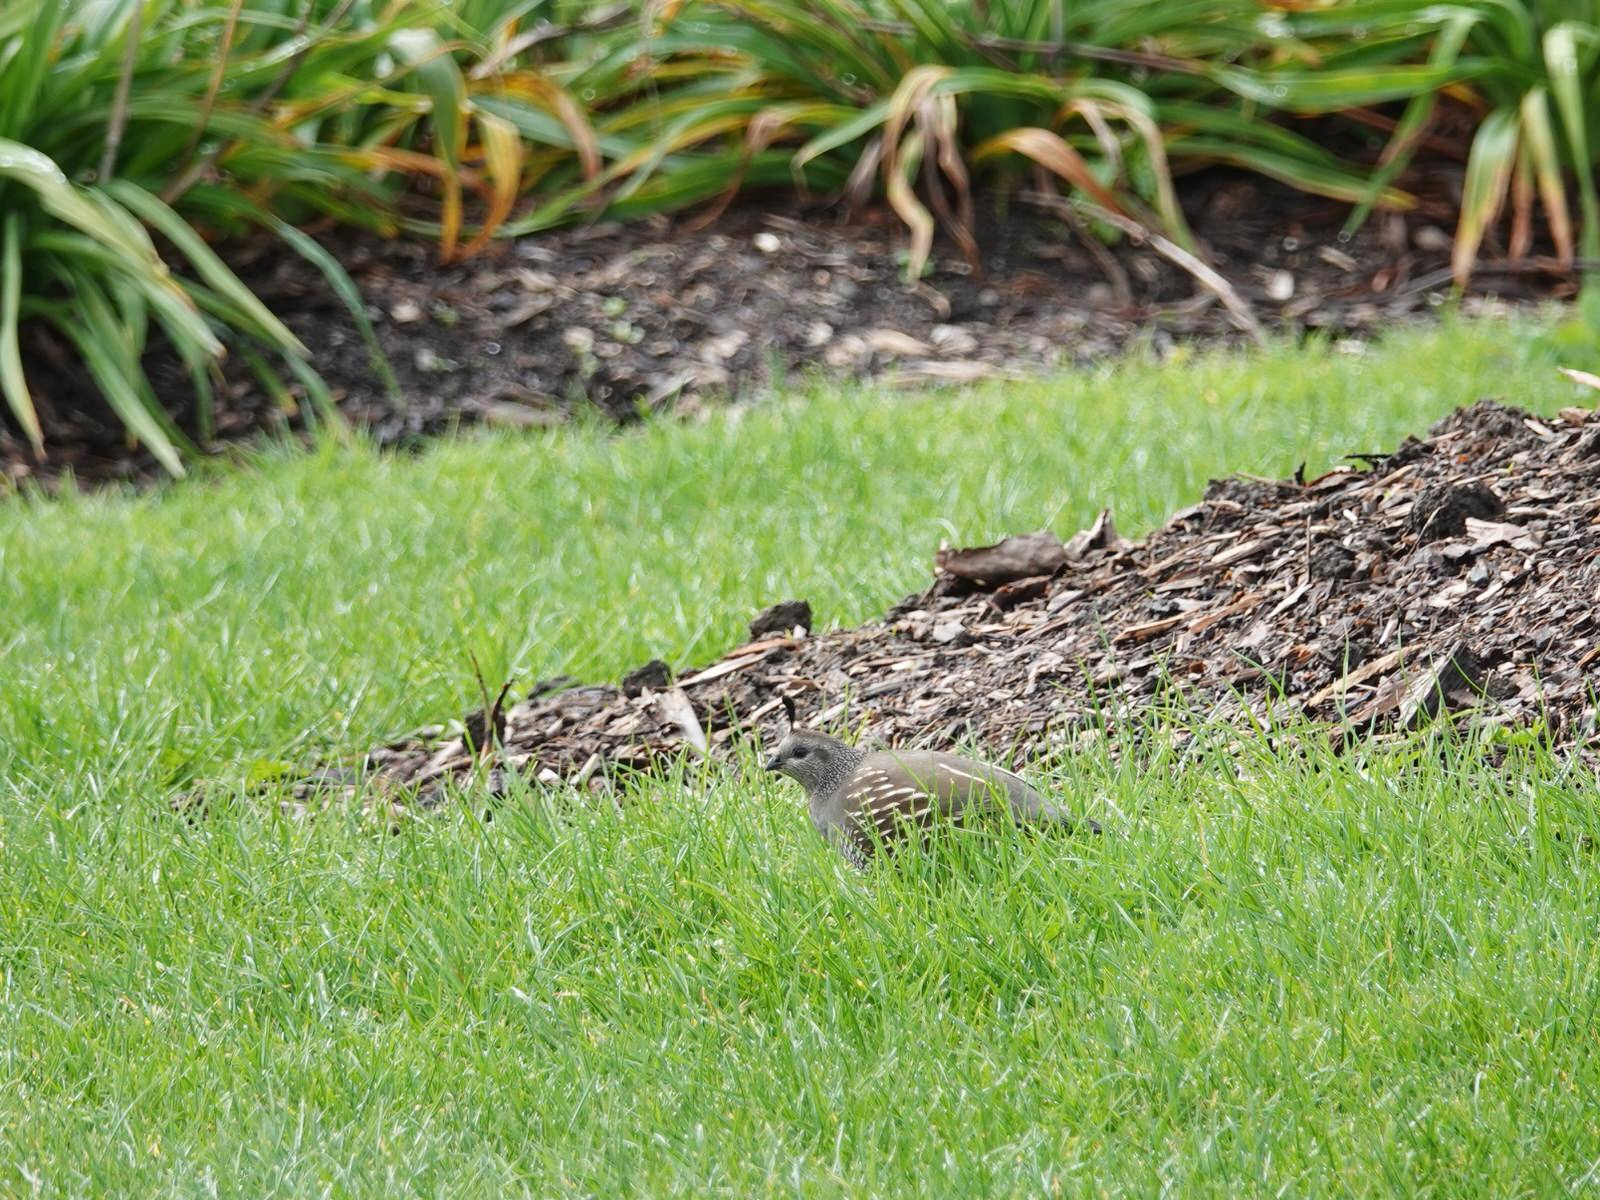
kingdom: Animalia
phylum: Chordata
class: Aves
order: Galliformes
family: Odontophoridae
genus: Callipepla
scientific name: Callipepla californica
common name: California quail
